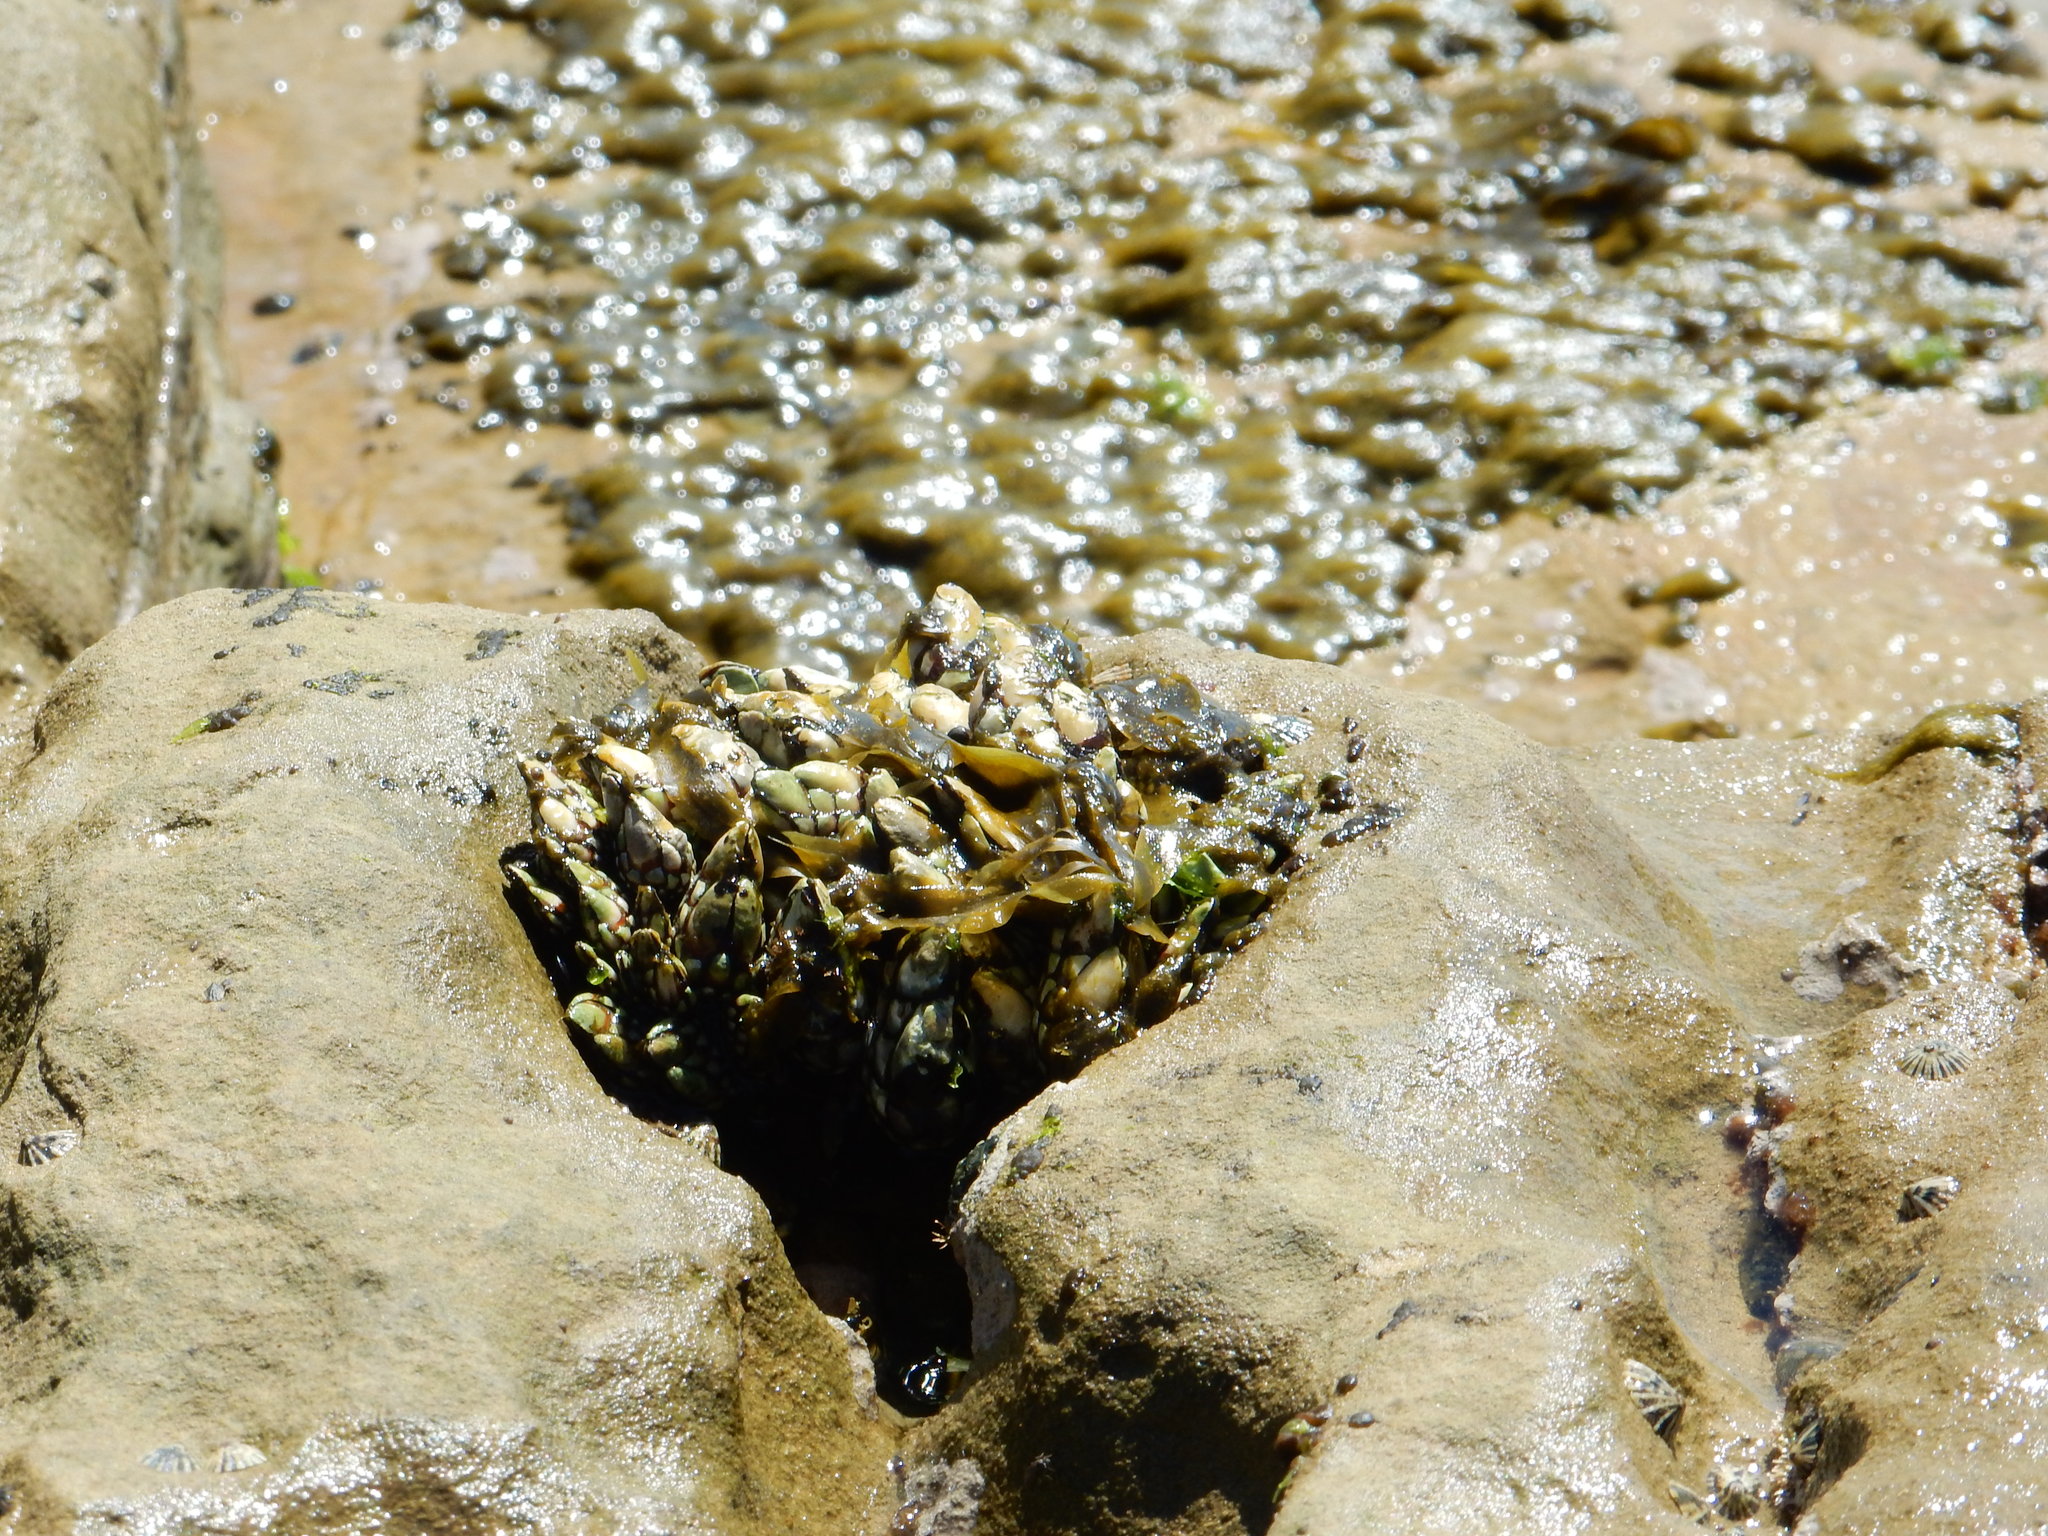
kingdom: Animalia
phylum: Arthropoda
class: Maxillopoda
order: Pedunculata
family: Pollicipedidae
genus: Pollicipes
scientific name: Pollicipes polymerus
